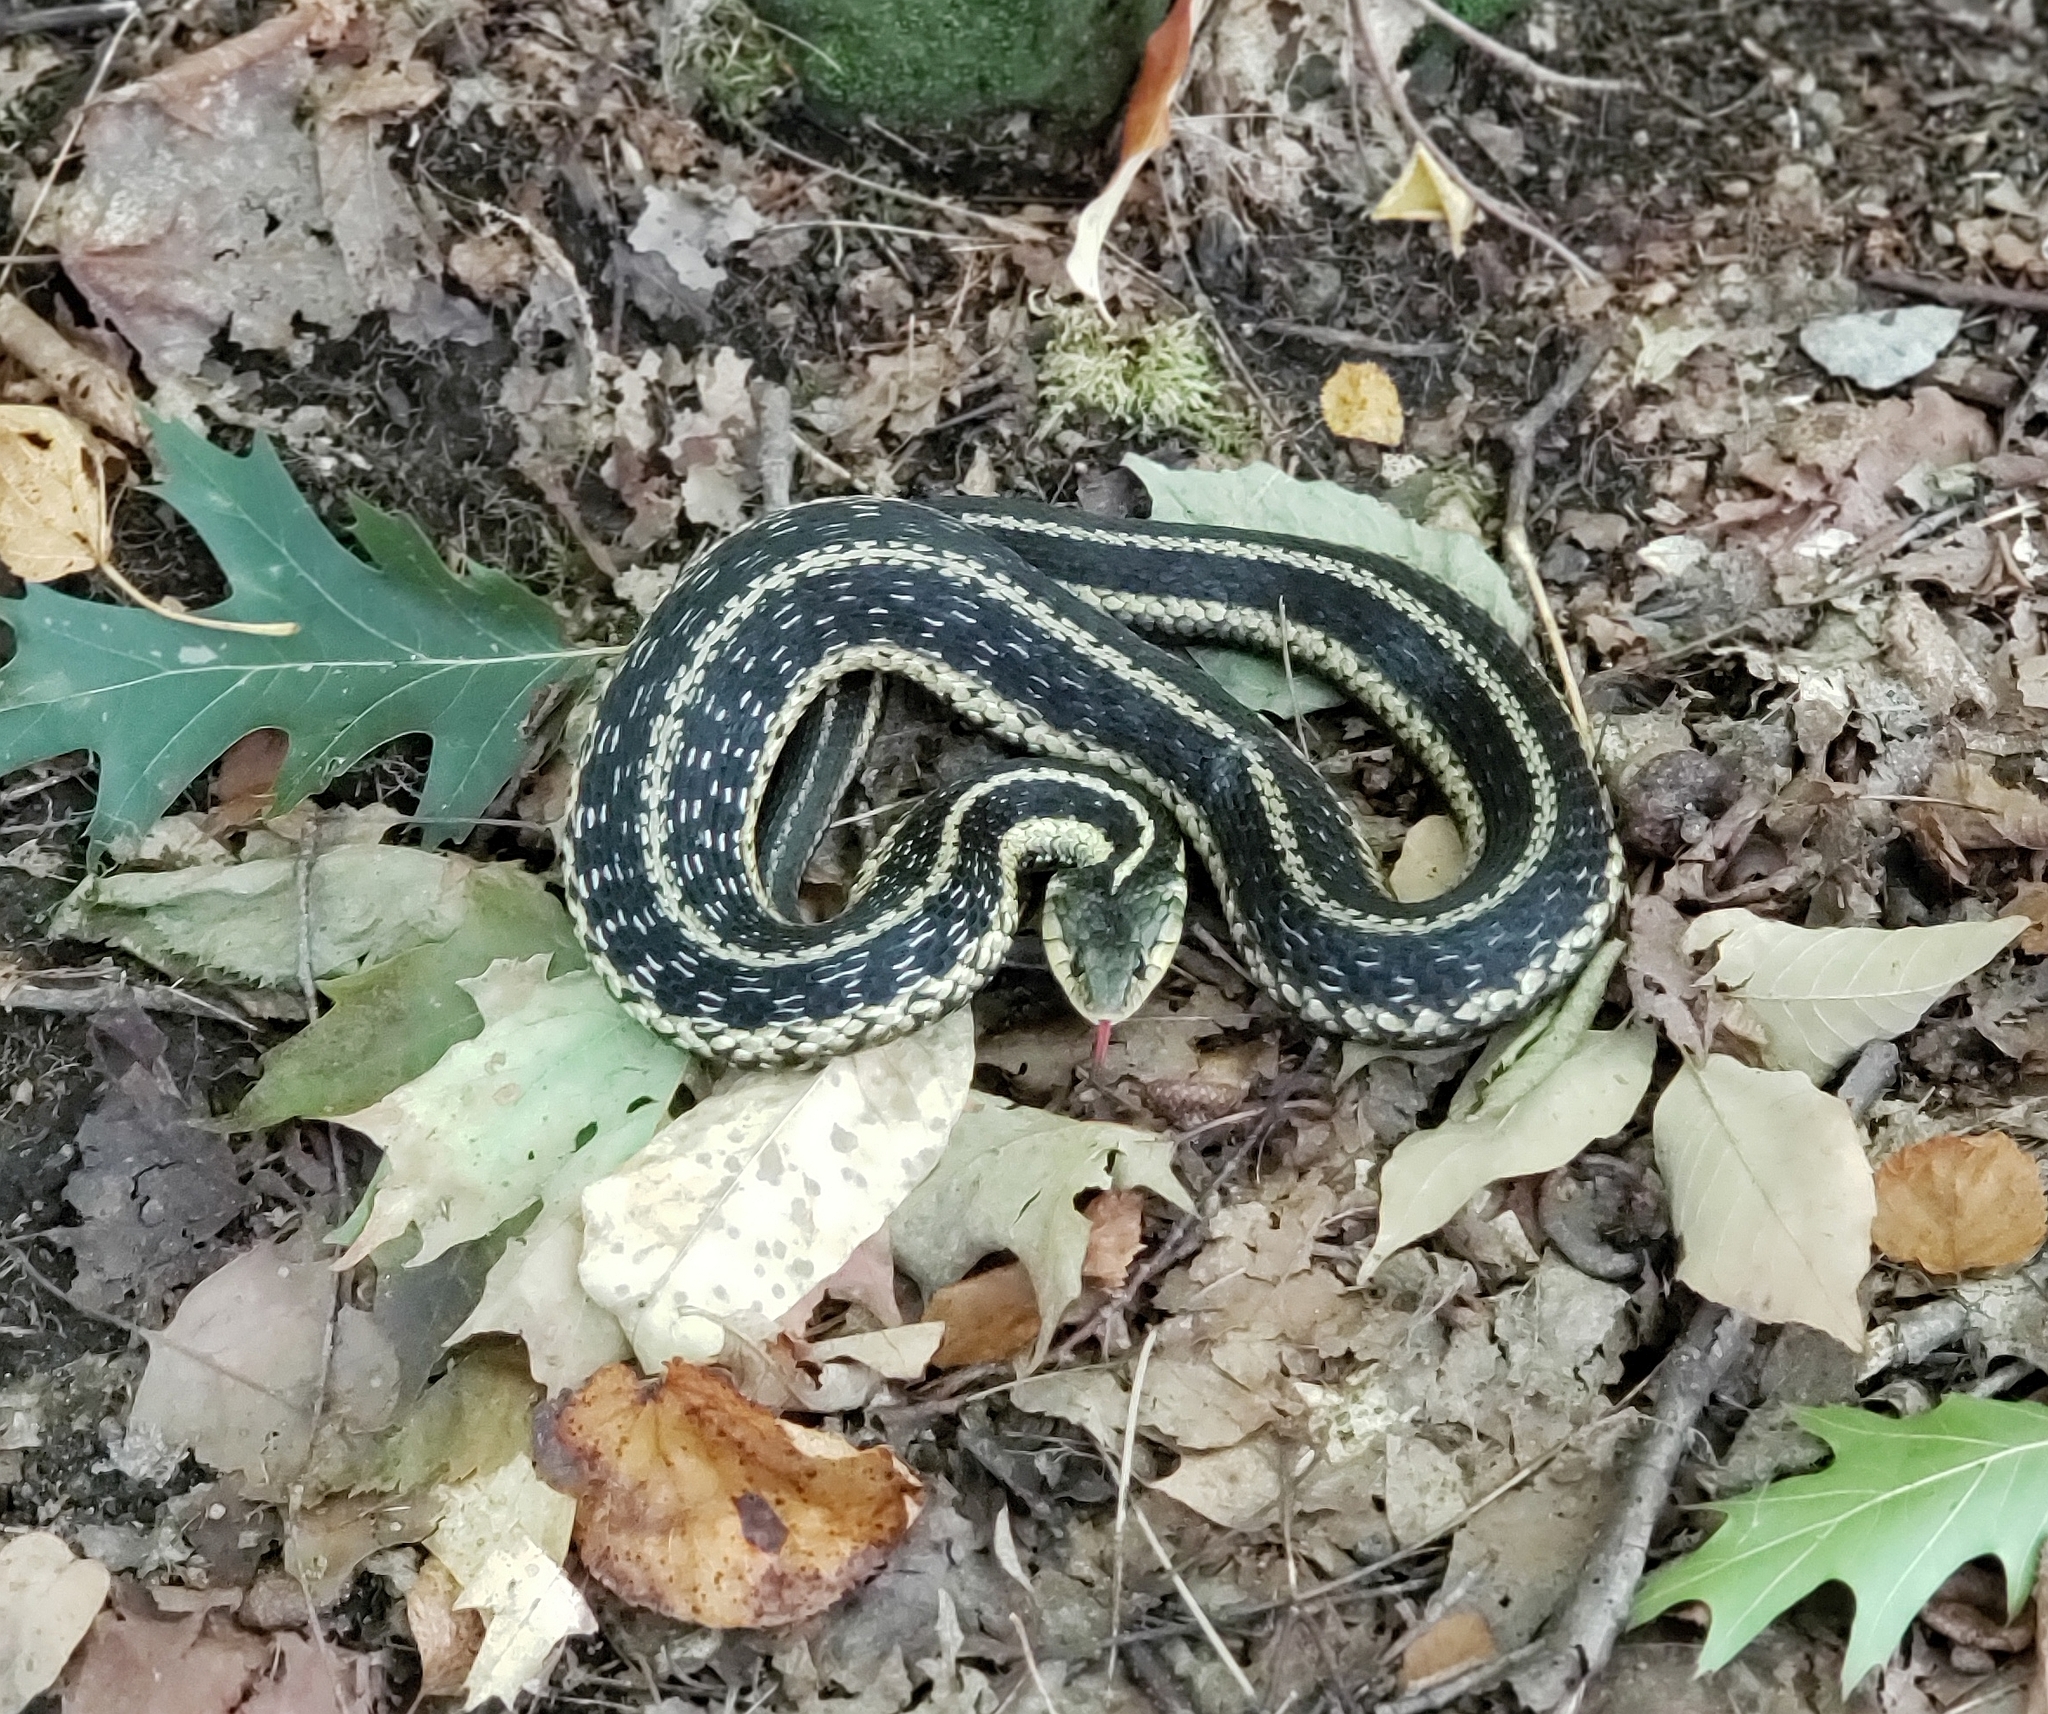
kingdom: Animalia
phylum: Chordata
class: Squamata
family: Colubridae
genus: Thamnophis
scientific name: Thamnophis sirtalis
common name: Common garter snake
